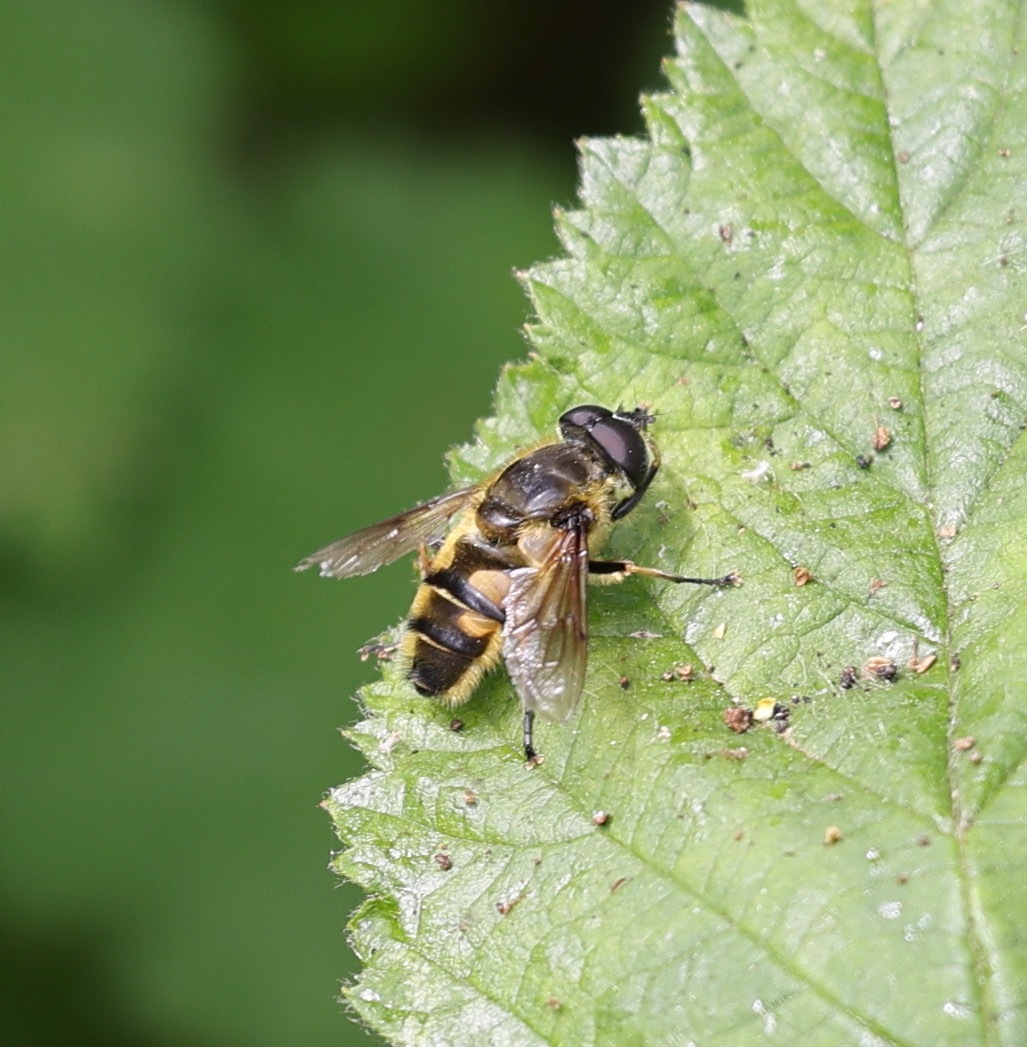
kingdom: Animalia
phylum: Arthropoda
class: Insecta
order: Diptera
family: Syrphidae
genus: Myathropa
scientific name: Myathropa florea
